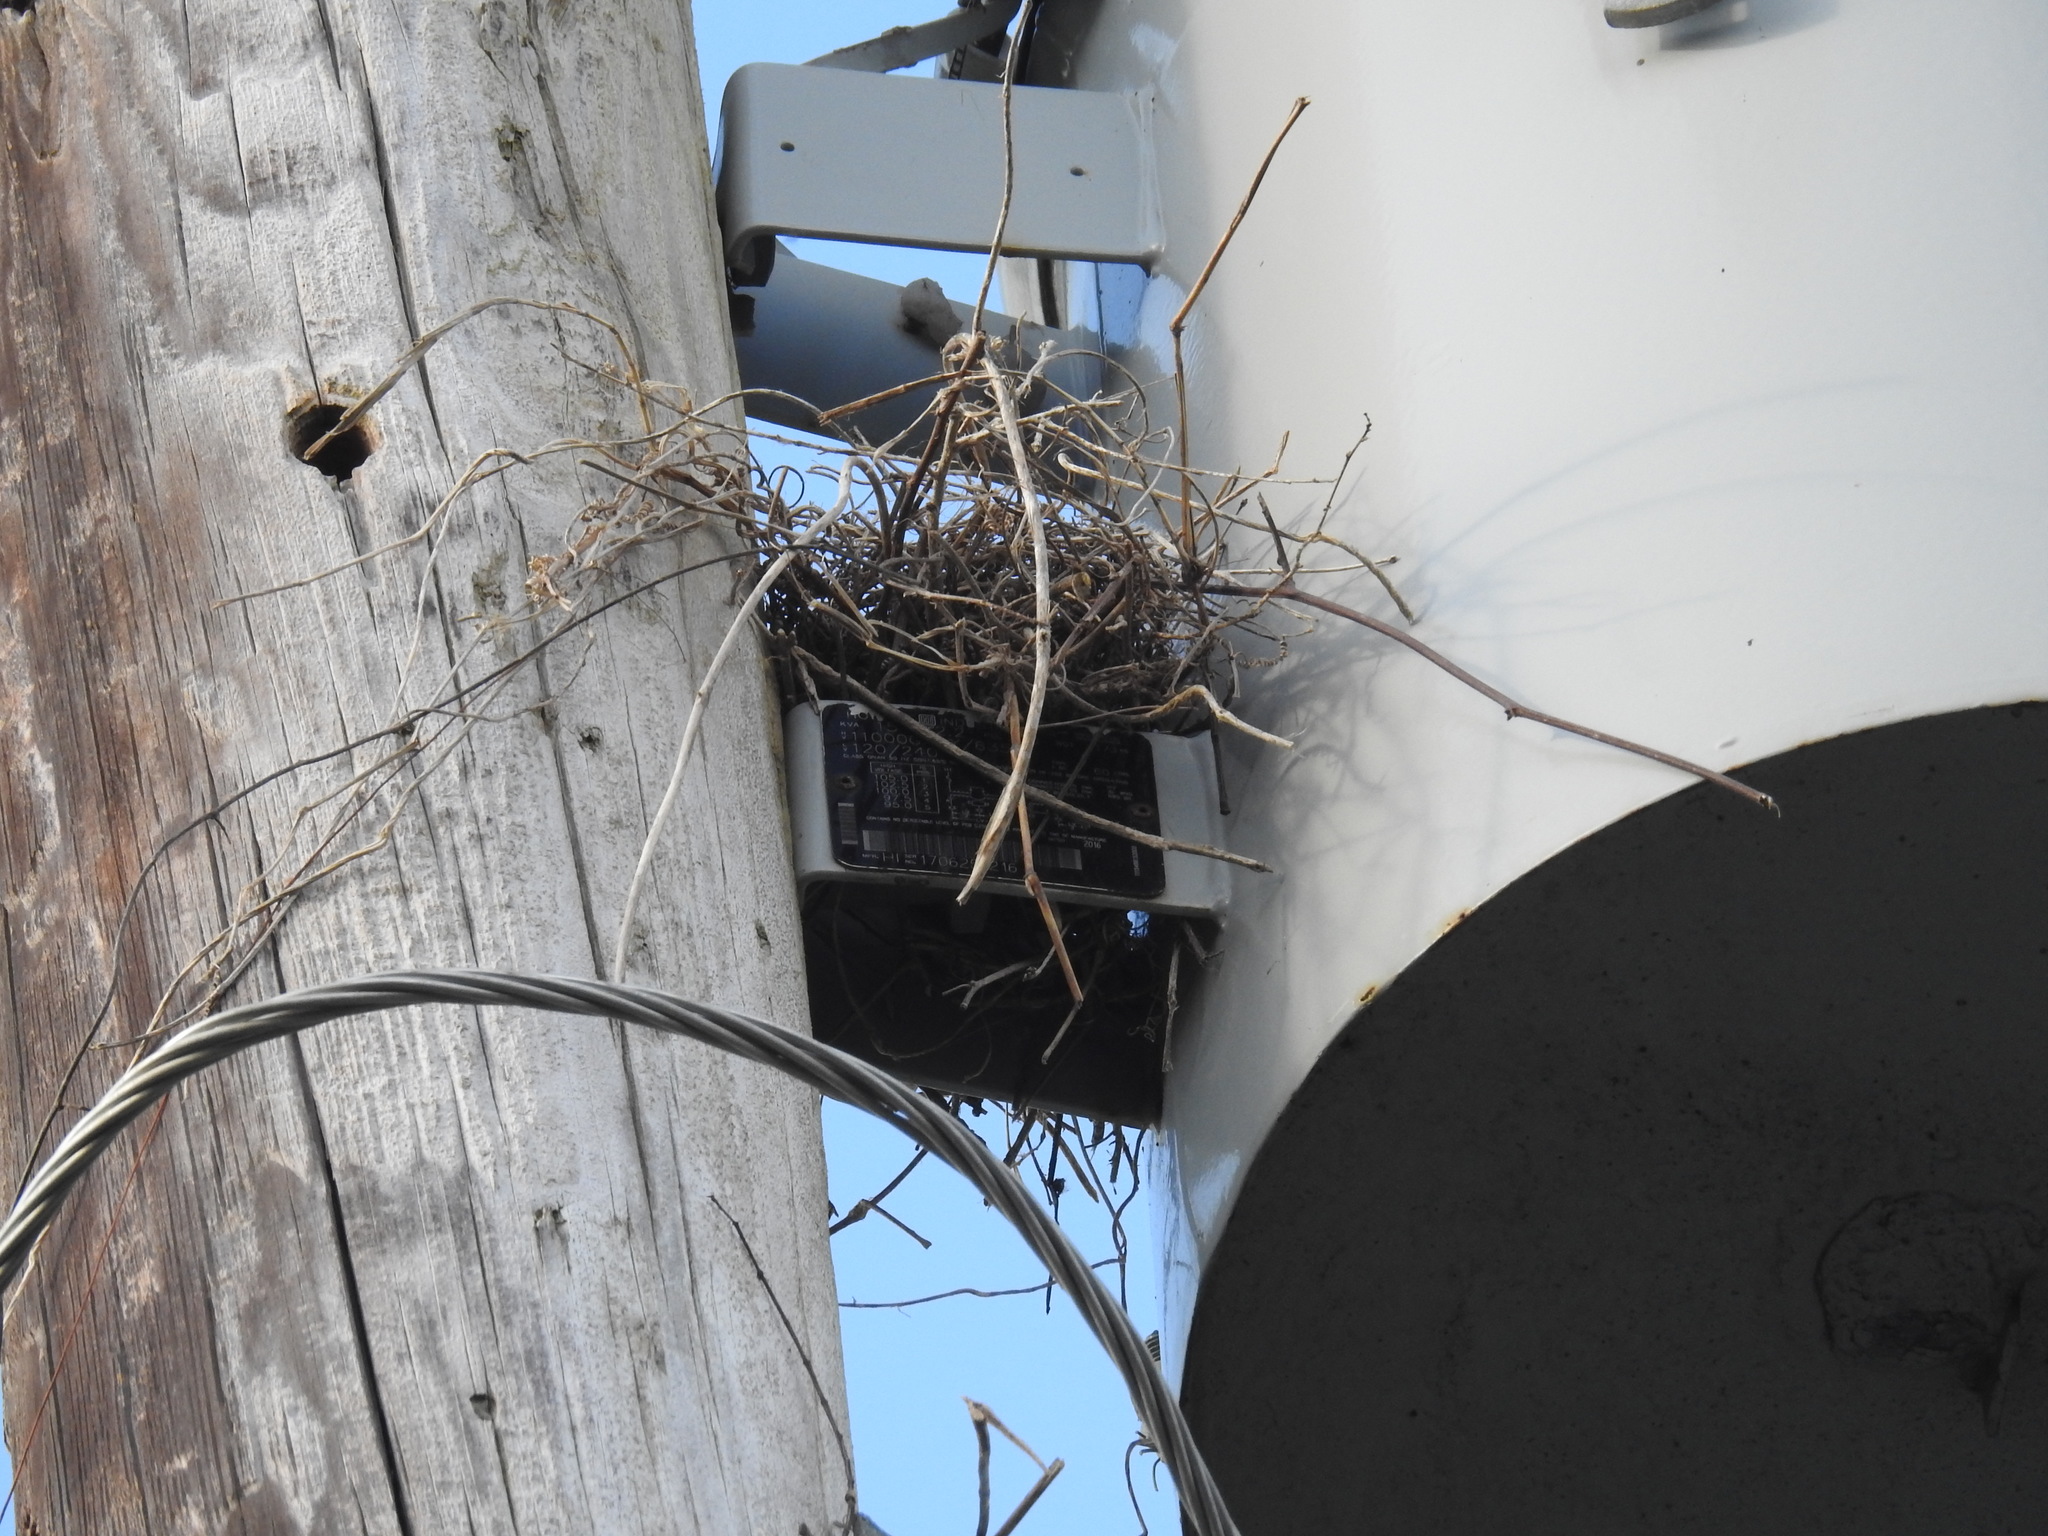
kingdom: Animalia
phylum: Chordata
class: Aves
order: Passeriformes
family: Tyrannidae
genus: Tyrannus
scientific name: Tyrannus dominicensis
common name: Gray kingbird
